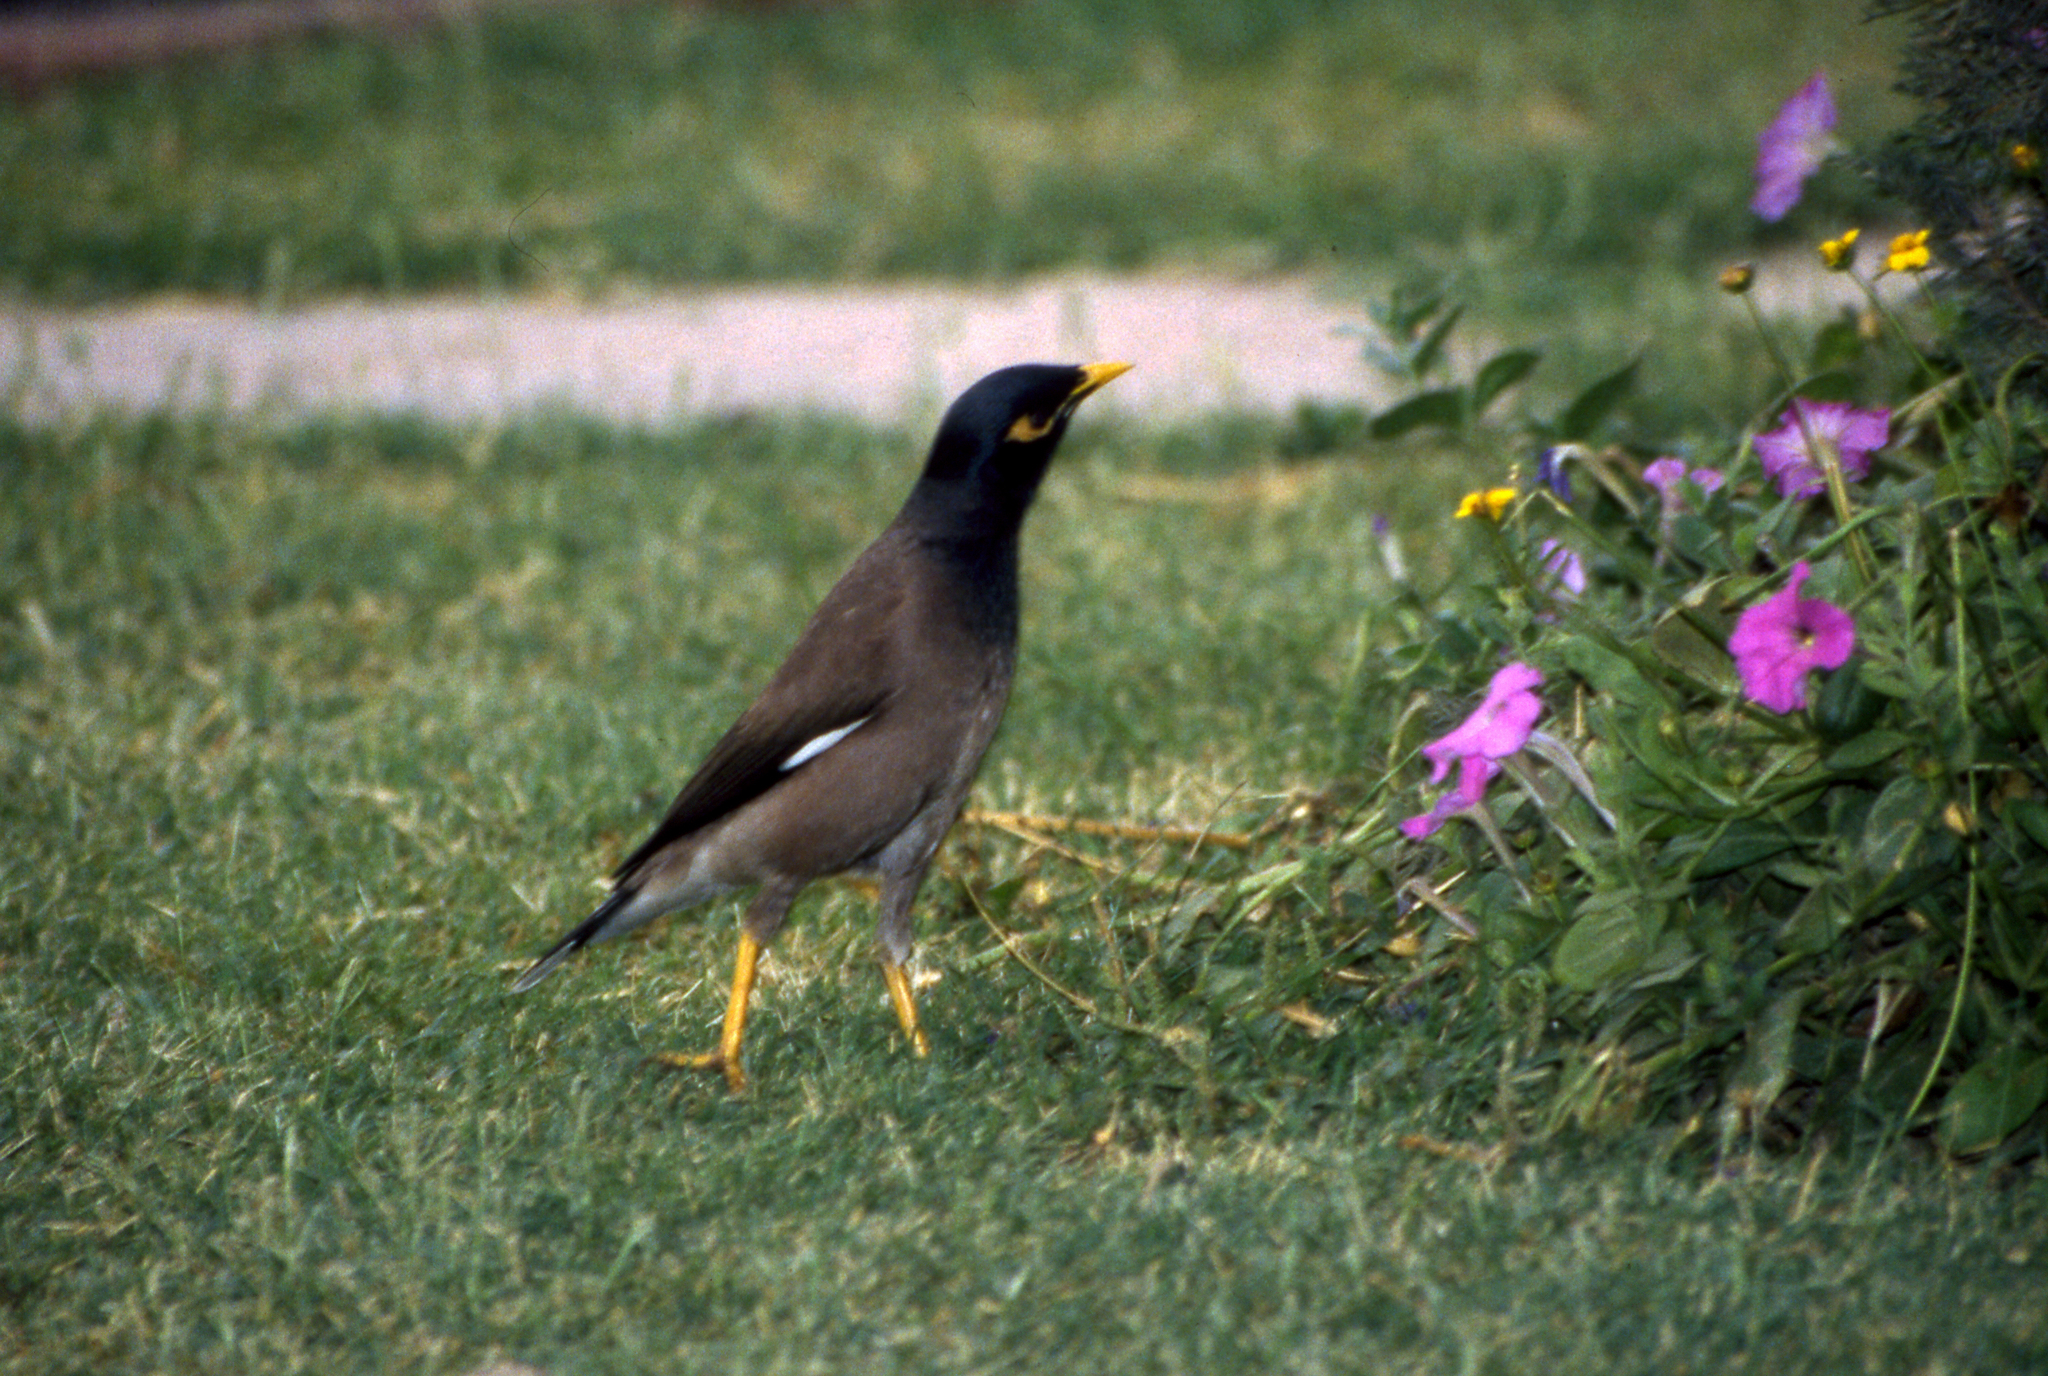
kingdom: Animalia
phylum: Chordata
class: Aves
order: Passeriformes
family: Sturnidae
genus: Acridotheres
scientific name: Acridotheres tristis
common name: Common myna
